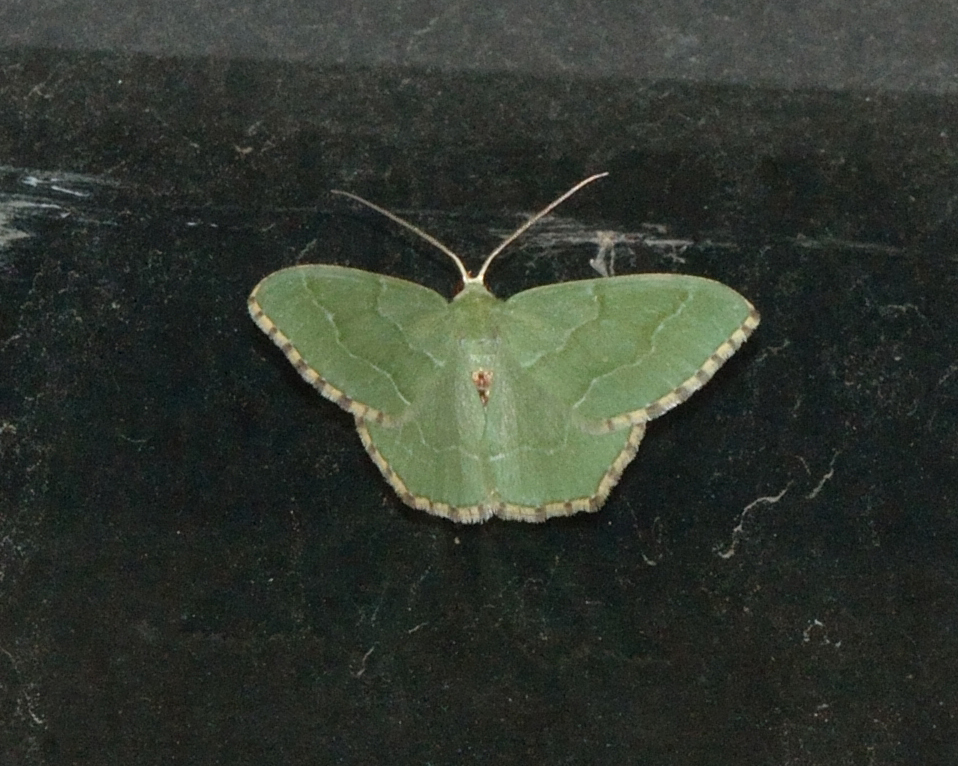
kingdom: Animalia
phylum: Arthropoda
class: Insecta
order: Lepidoptera
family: Geometridae
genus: Hemithea
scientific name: Hemithea aestivaria
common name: Common emerald
